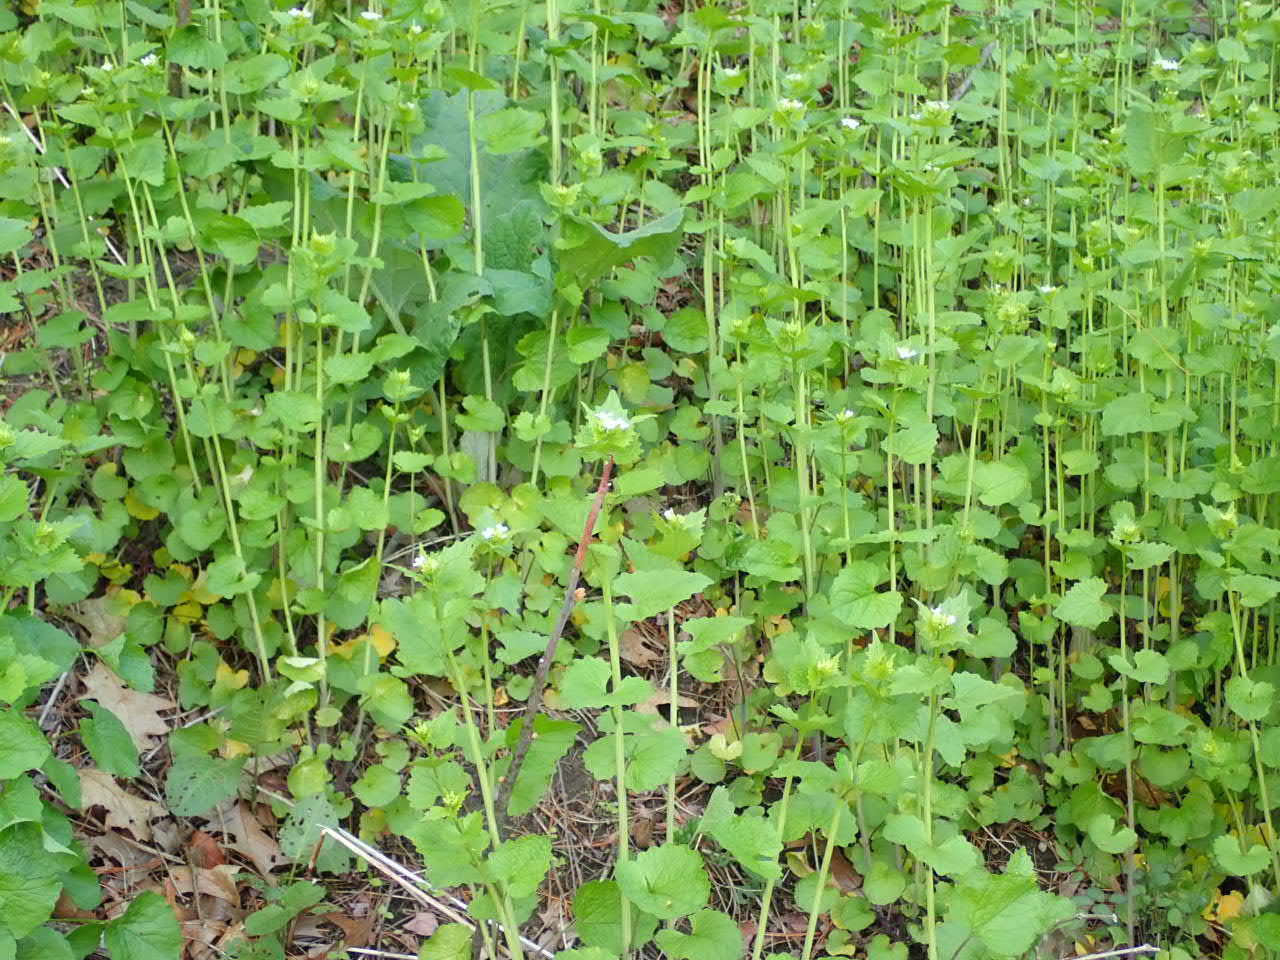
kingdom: Plantae
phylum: Tracheophyta
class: Magnoliopsida
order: Brassicales
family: Brassicaceae
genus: Alliaria
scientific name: Alliaria petiolata
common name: Garlic mustard
